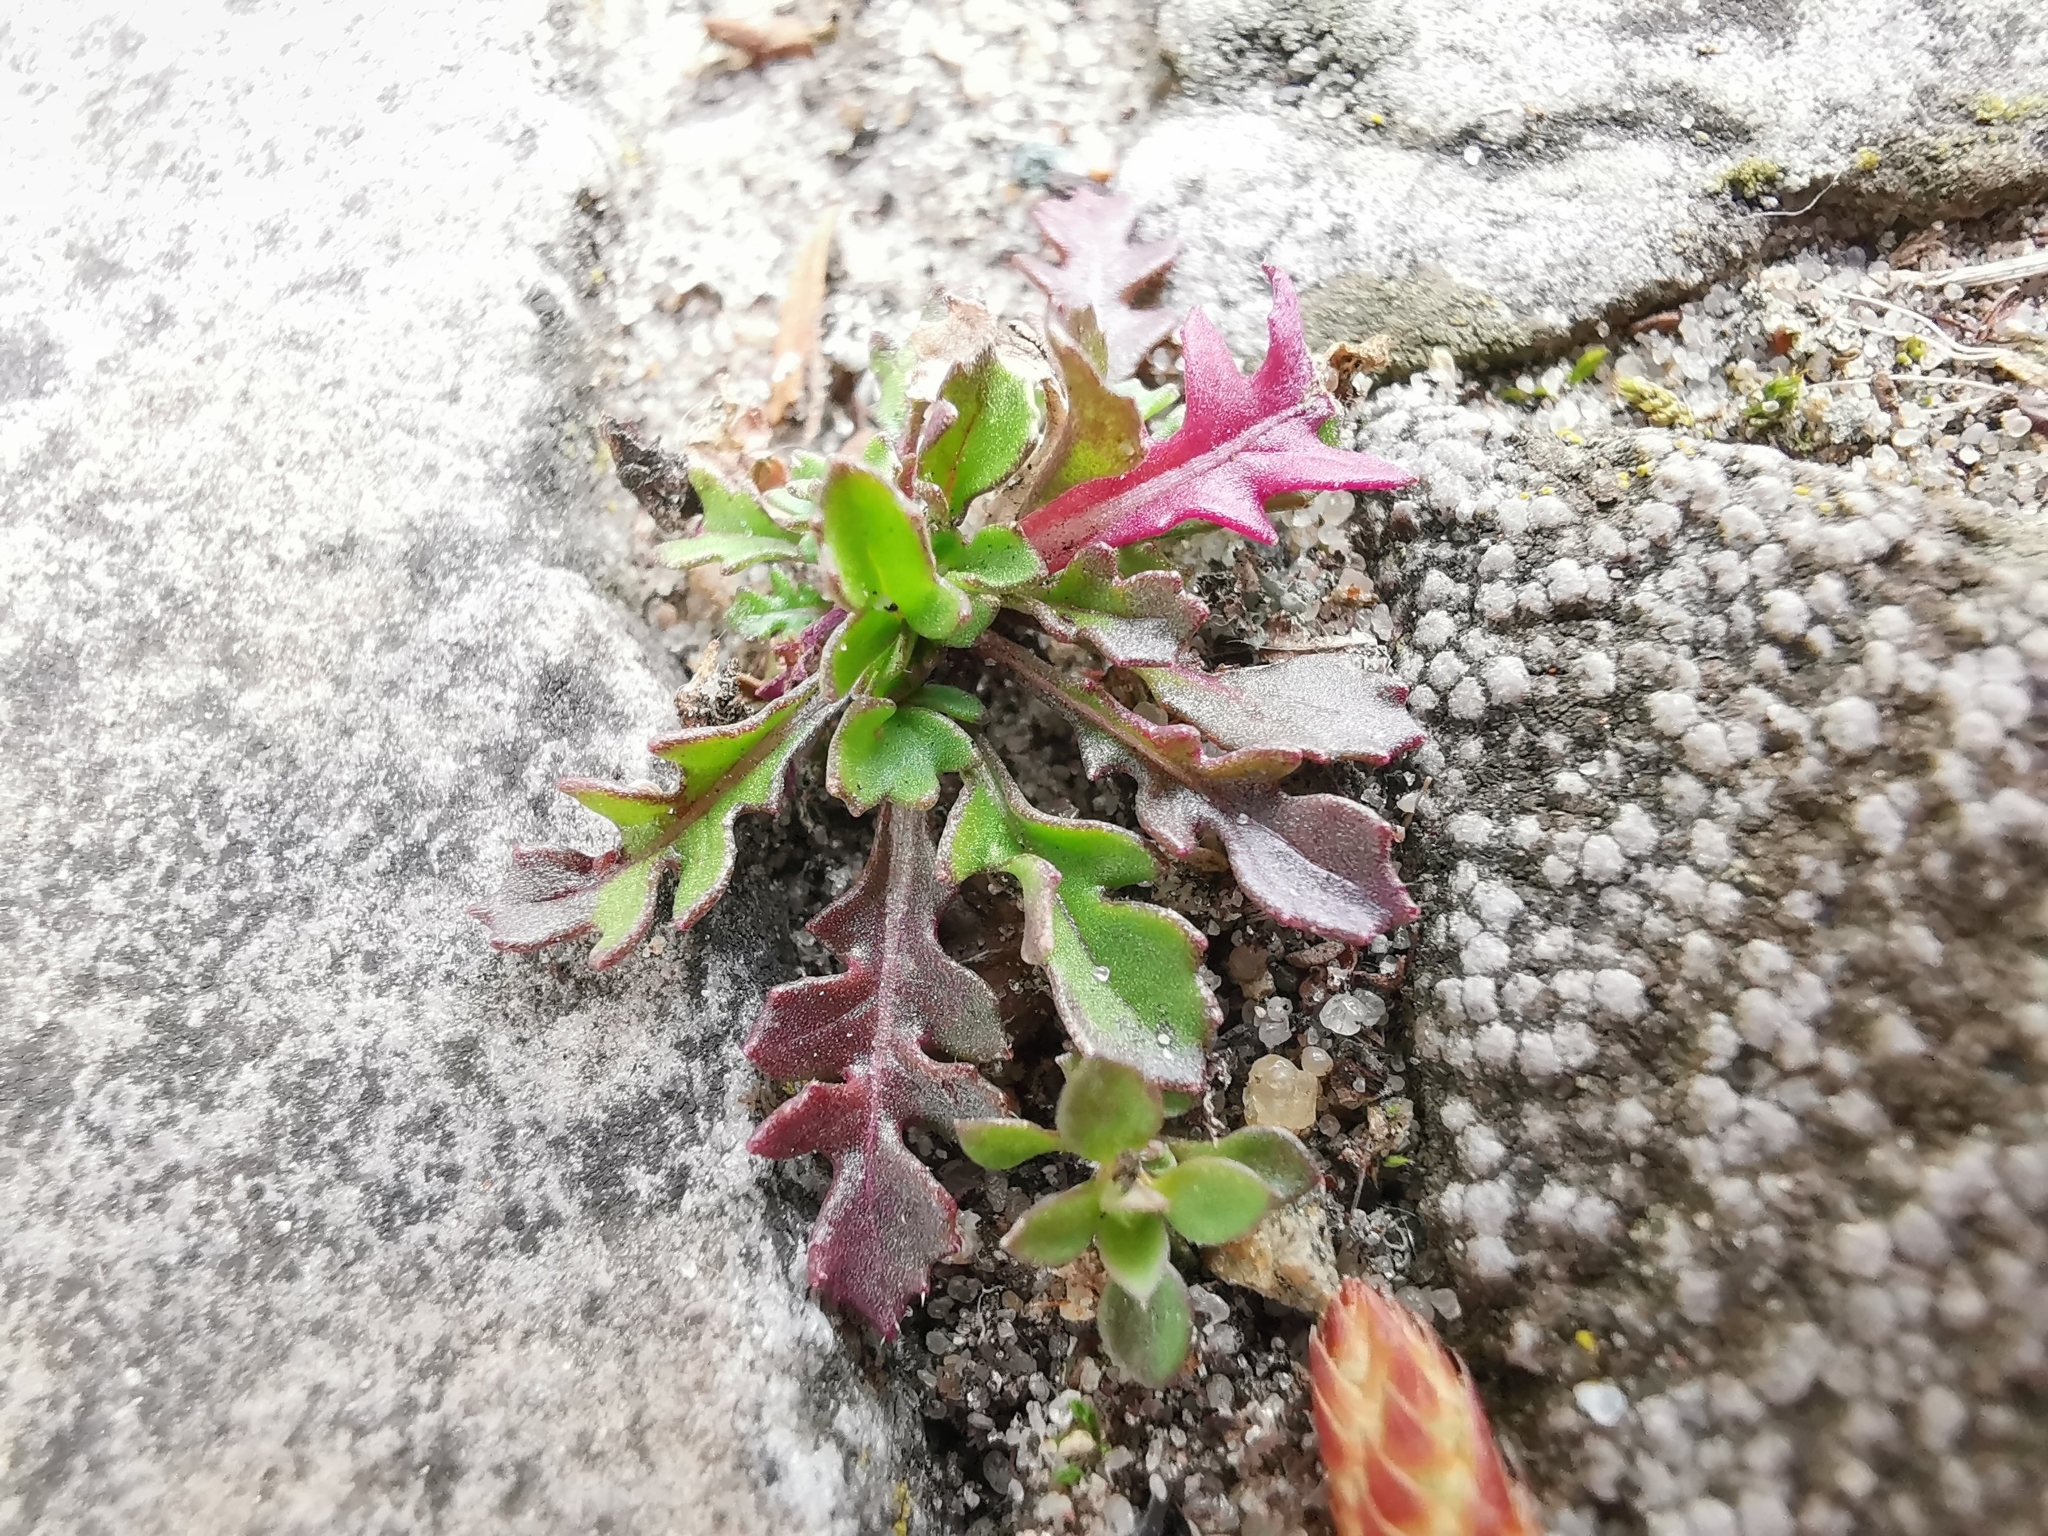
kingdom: Plantae
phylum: Tracheophyta
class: Magnoliopsida
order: Brassicales
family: Brassicaceae
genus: Capsella
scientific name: Capsella bursa-pastoris
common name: Shepherd's purse
